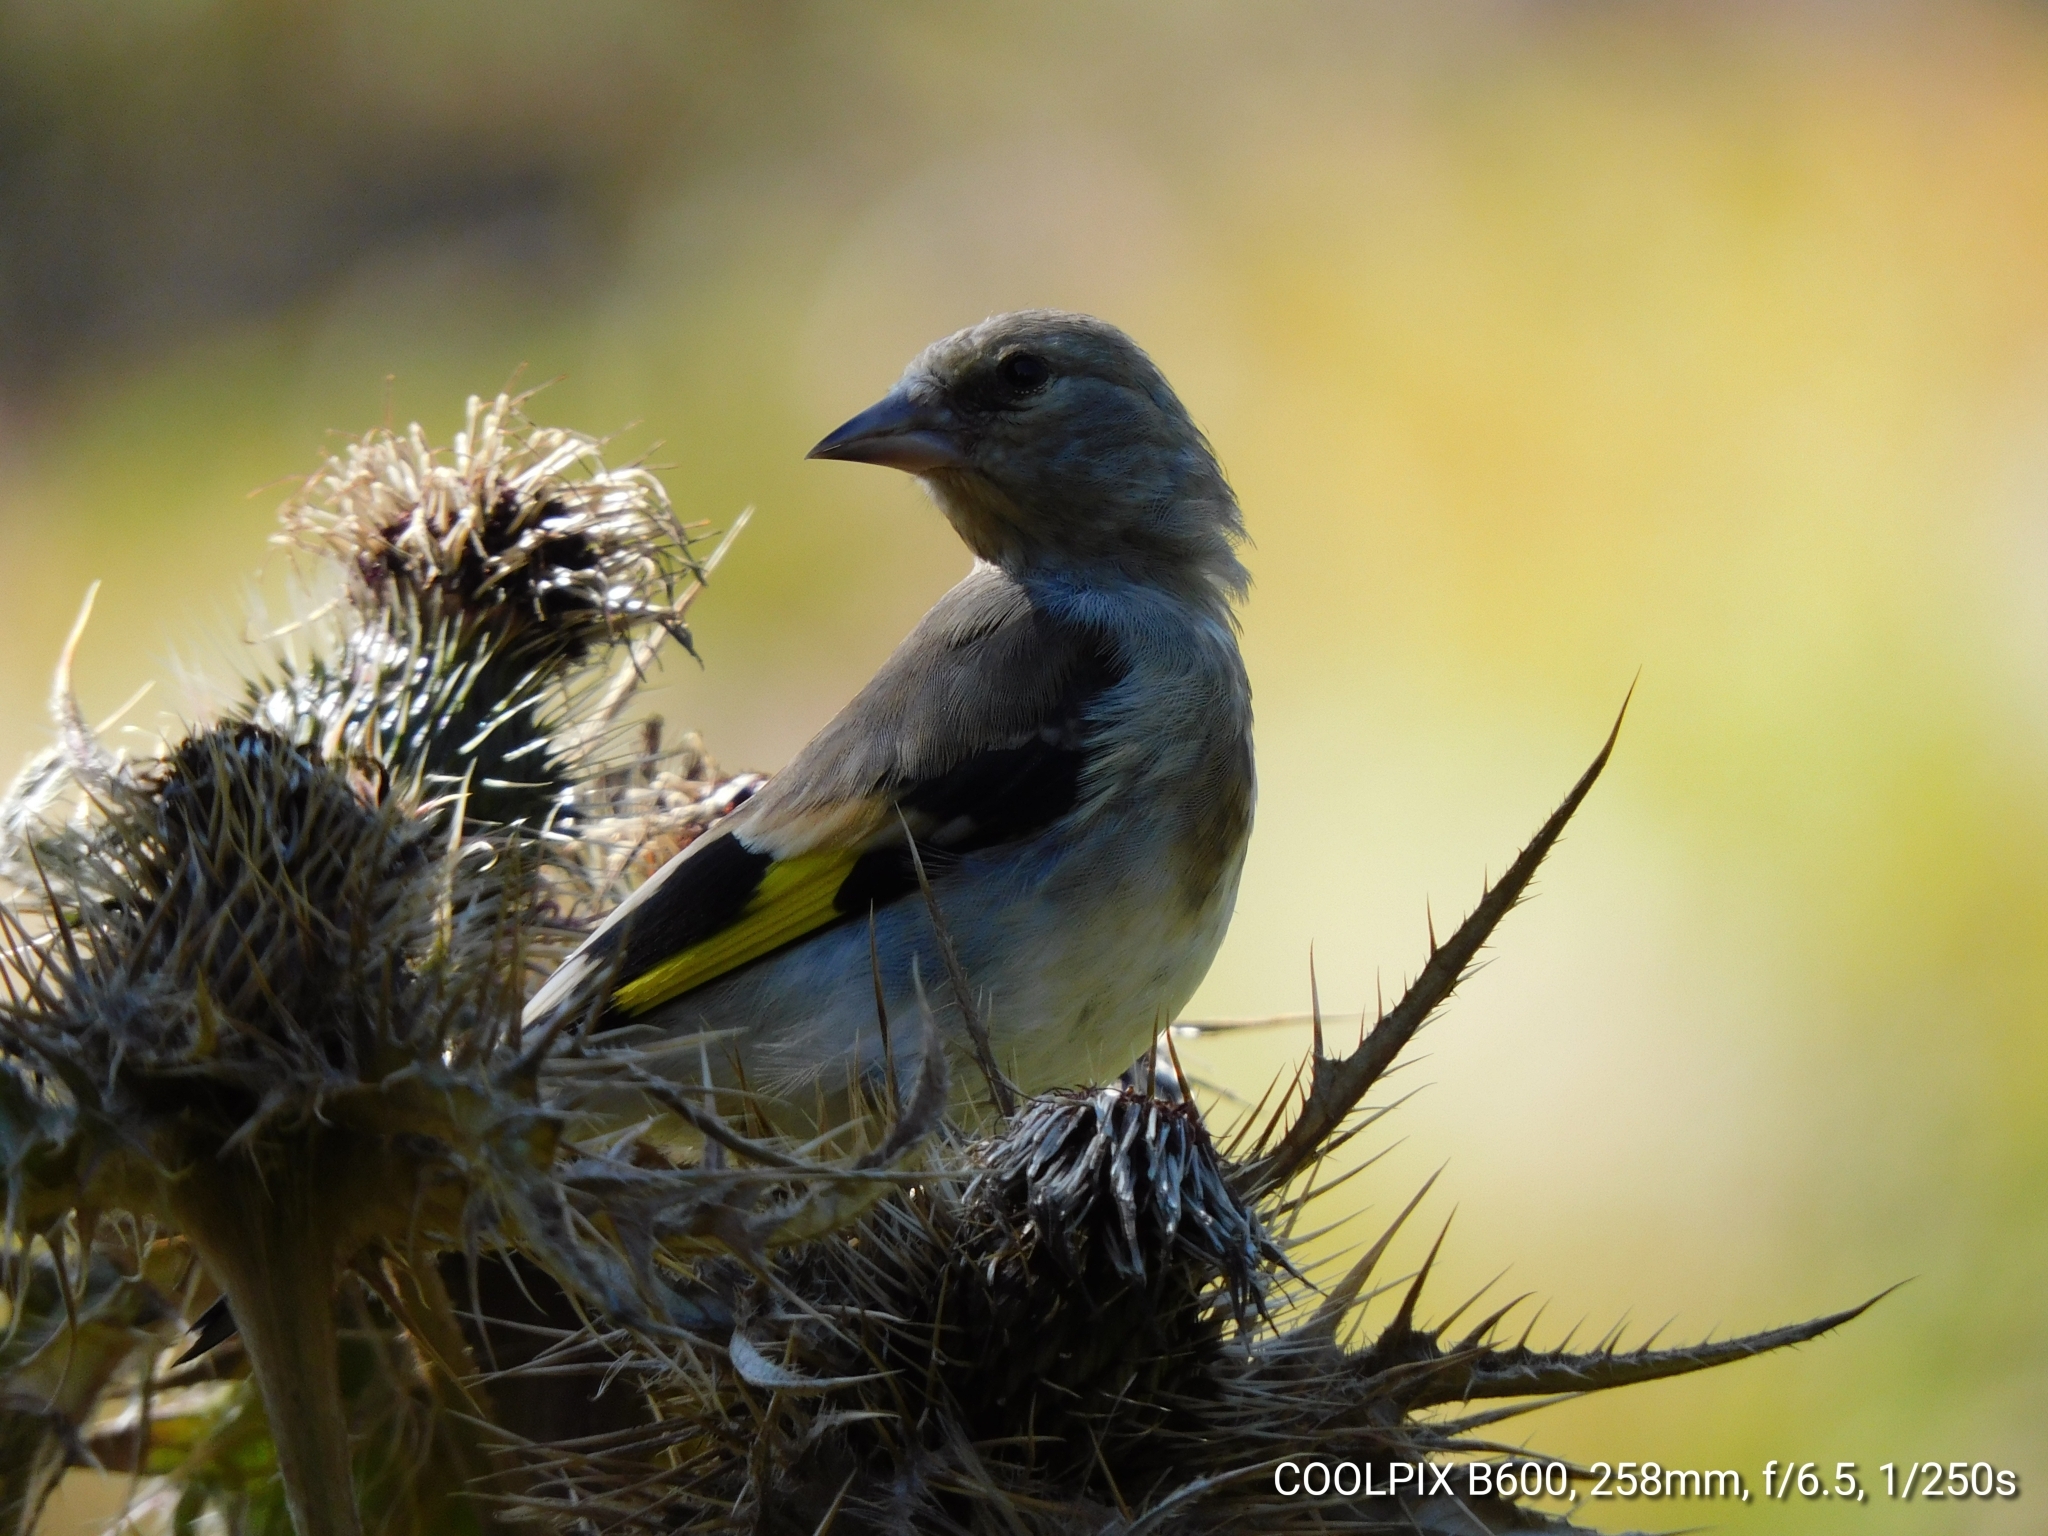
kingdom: Animalia
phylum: Chordata
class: Aves
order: Passeriformes
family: Fringillidae
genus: Carduelis
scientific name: Carduelis carduelis
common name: European goldfinch
